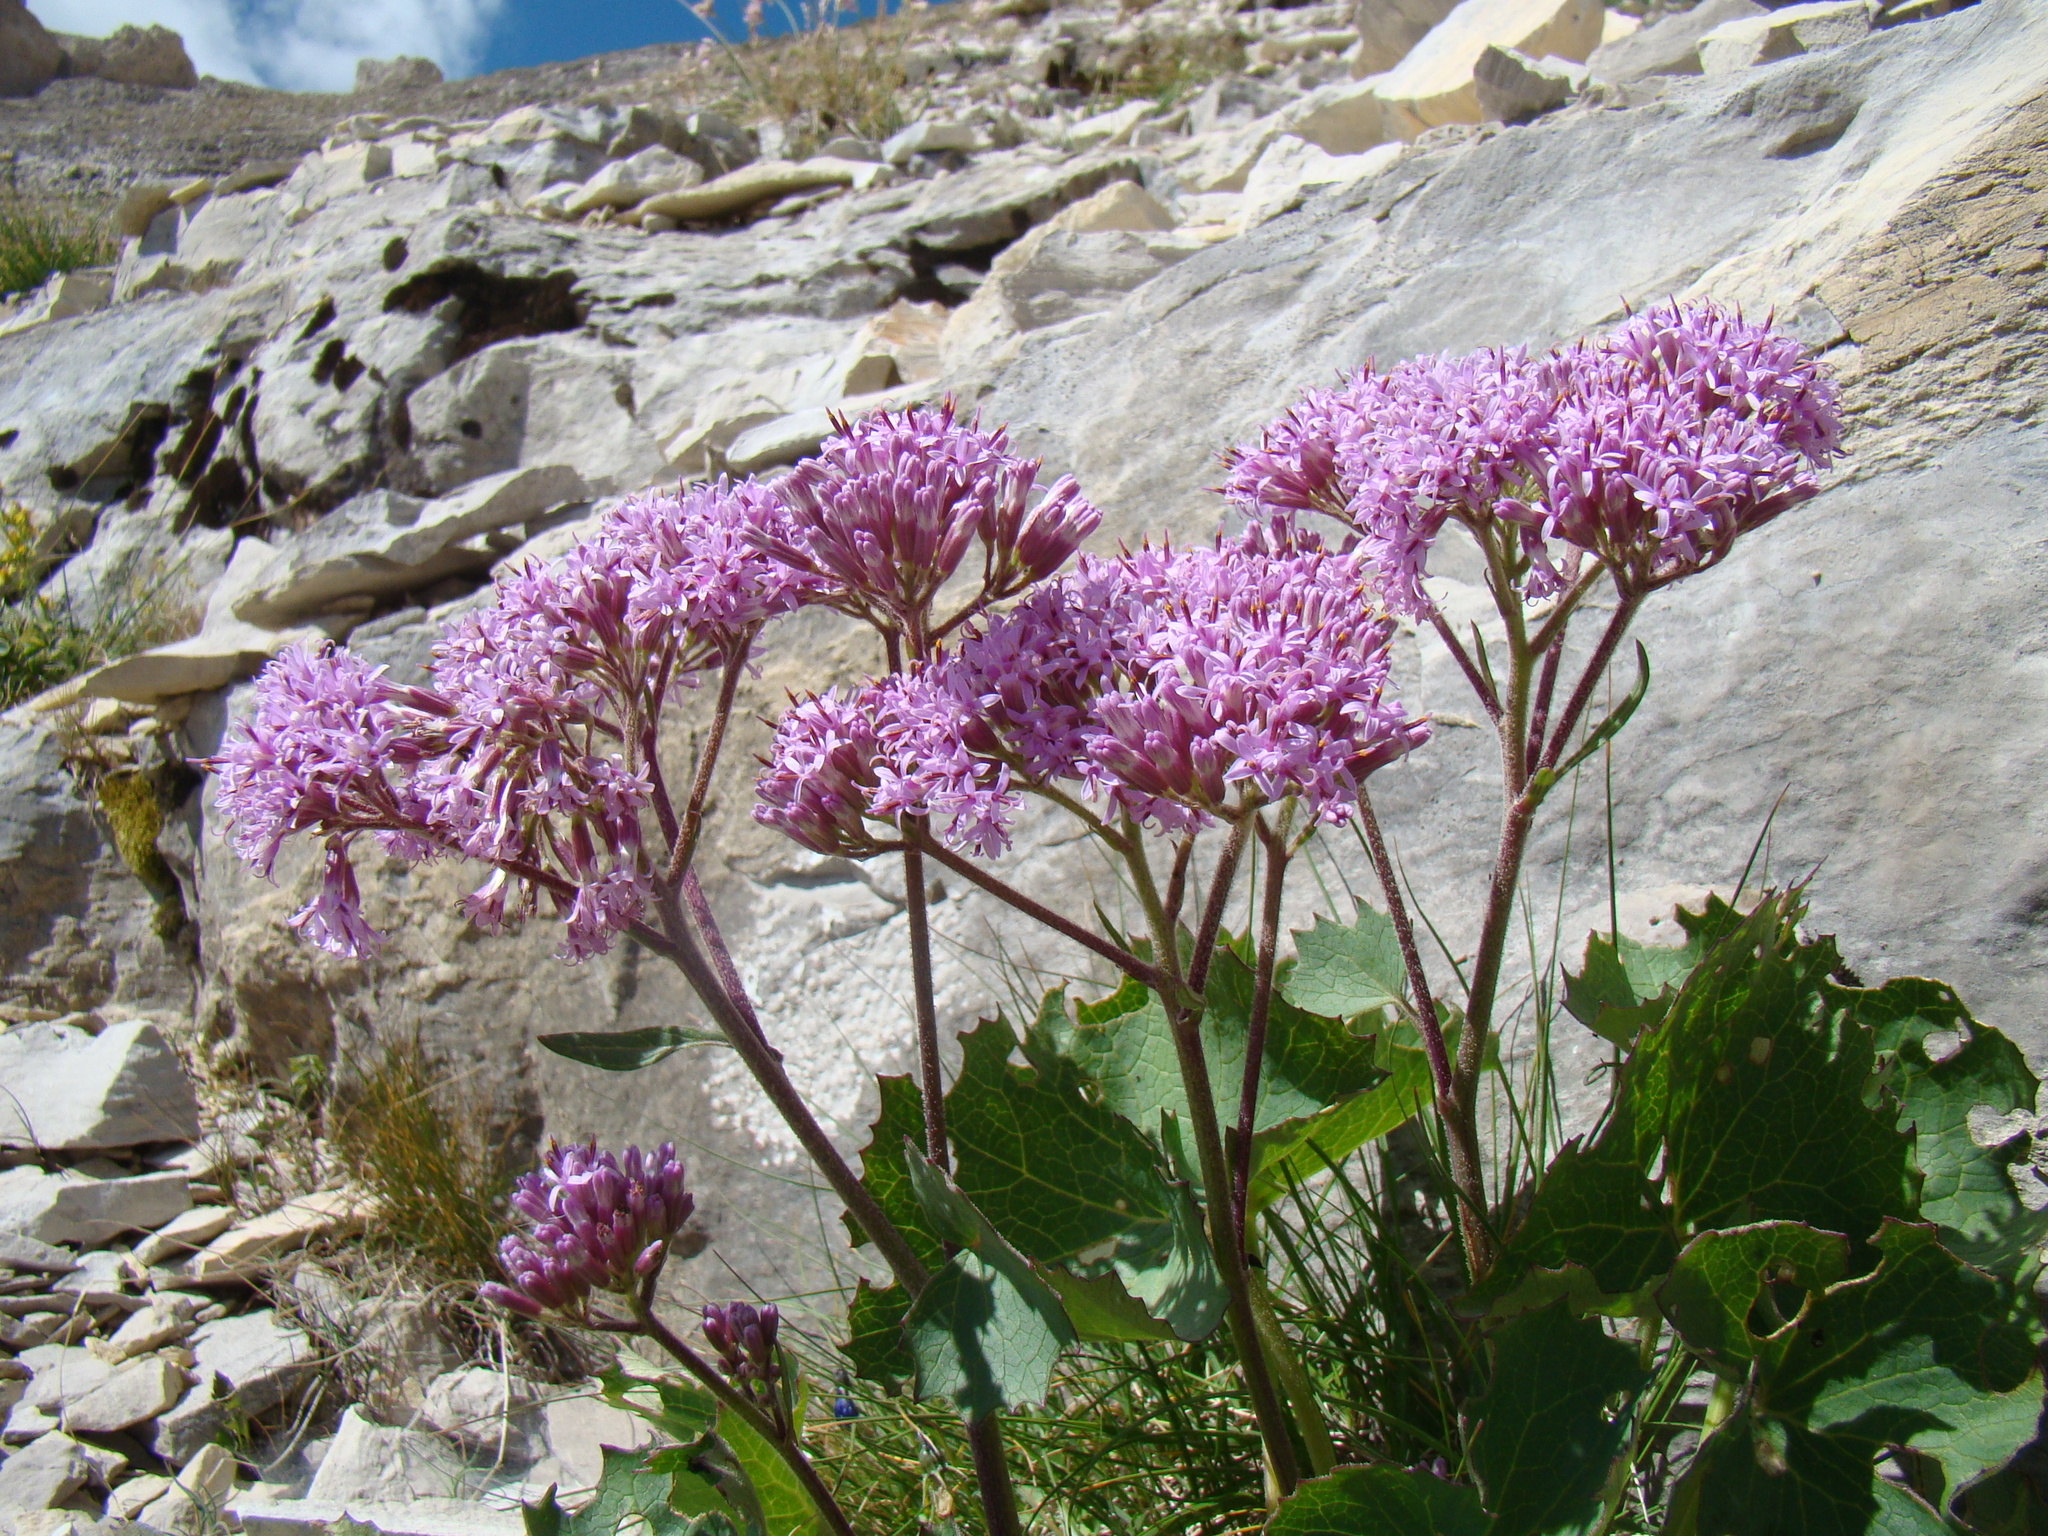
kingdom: Plantae
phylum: Tracheophyta
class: Magnoliopsida
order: Asterales
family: Asteraceae
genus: Adenostyles
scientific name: Adenostyles alliariae
